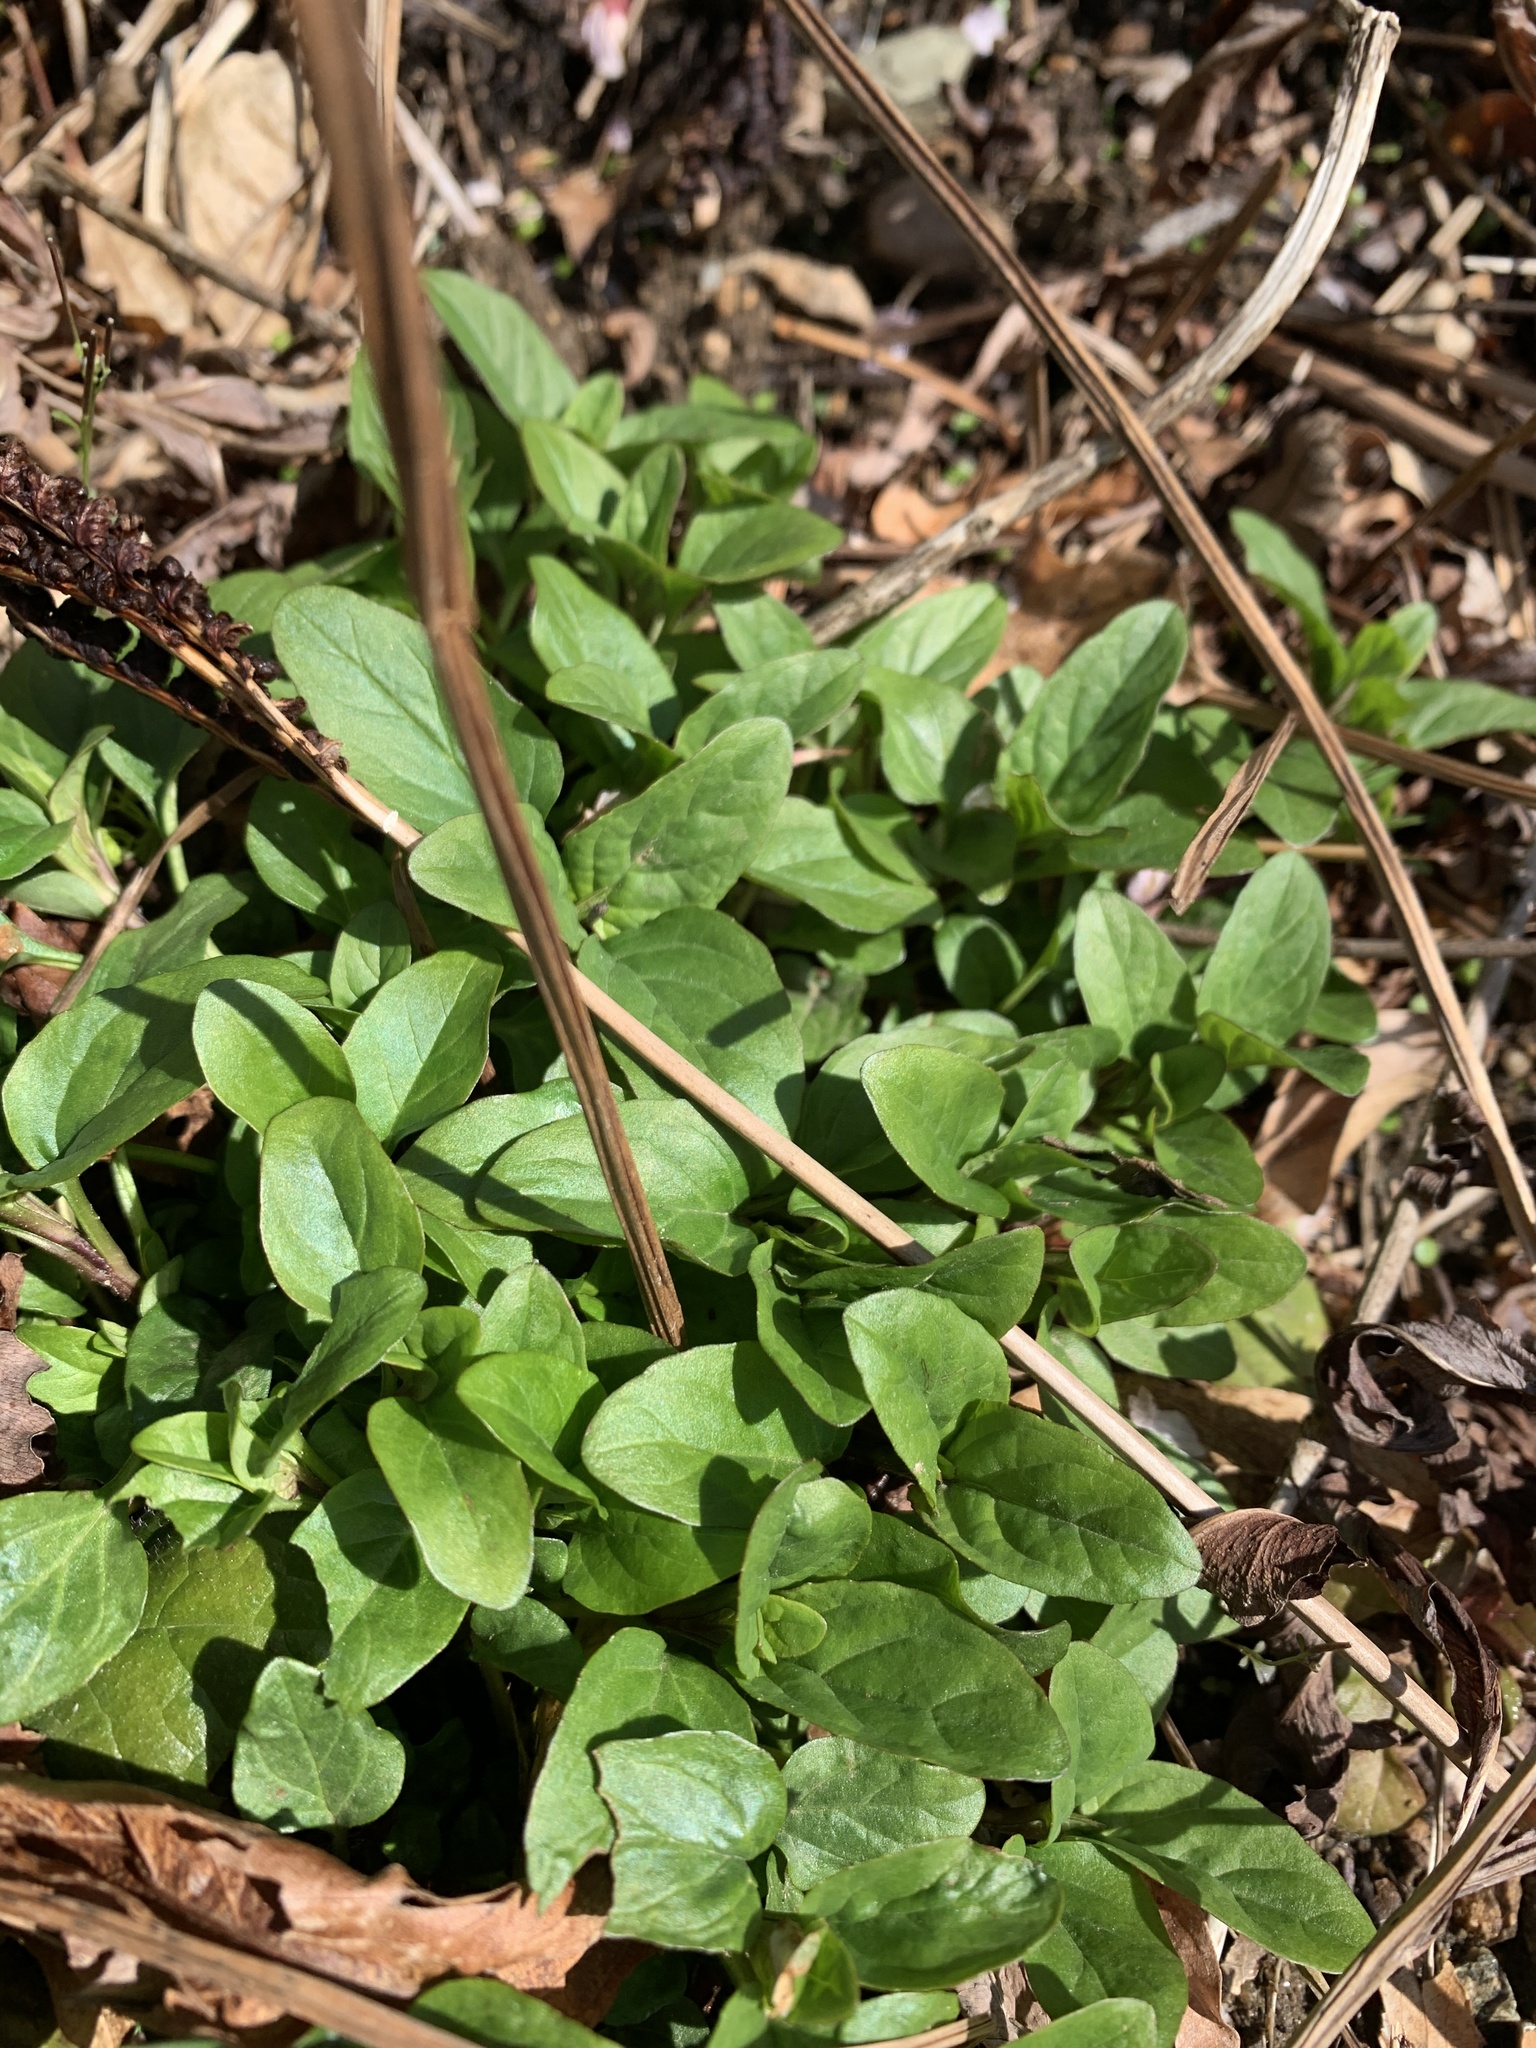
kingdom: Plantae
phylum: Tracheophyta
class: Magnoliopsida
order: Lamiales
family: Lamiaceae
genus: Prunella
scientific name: Prunella vulgaris
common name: Heal-all
